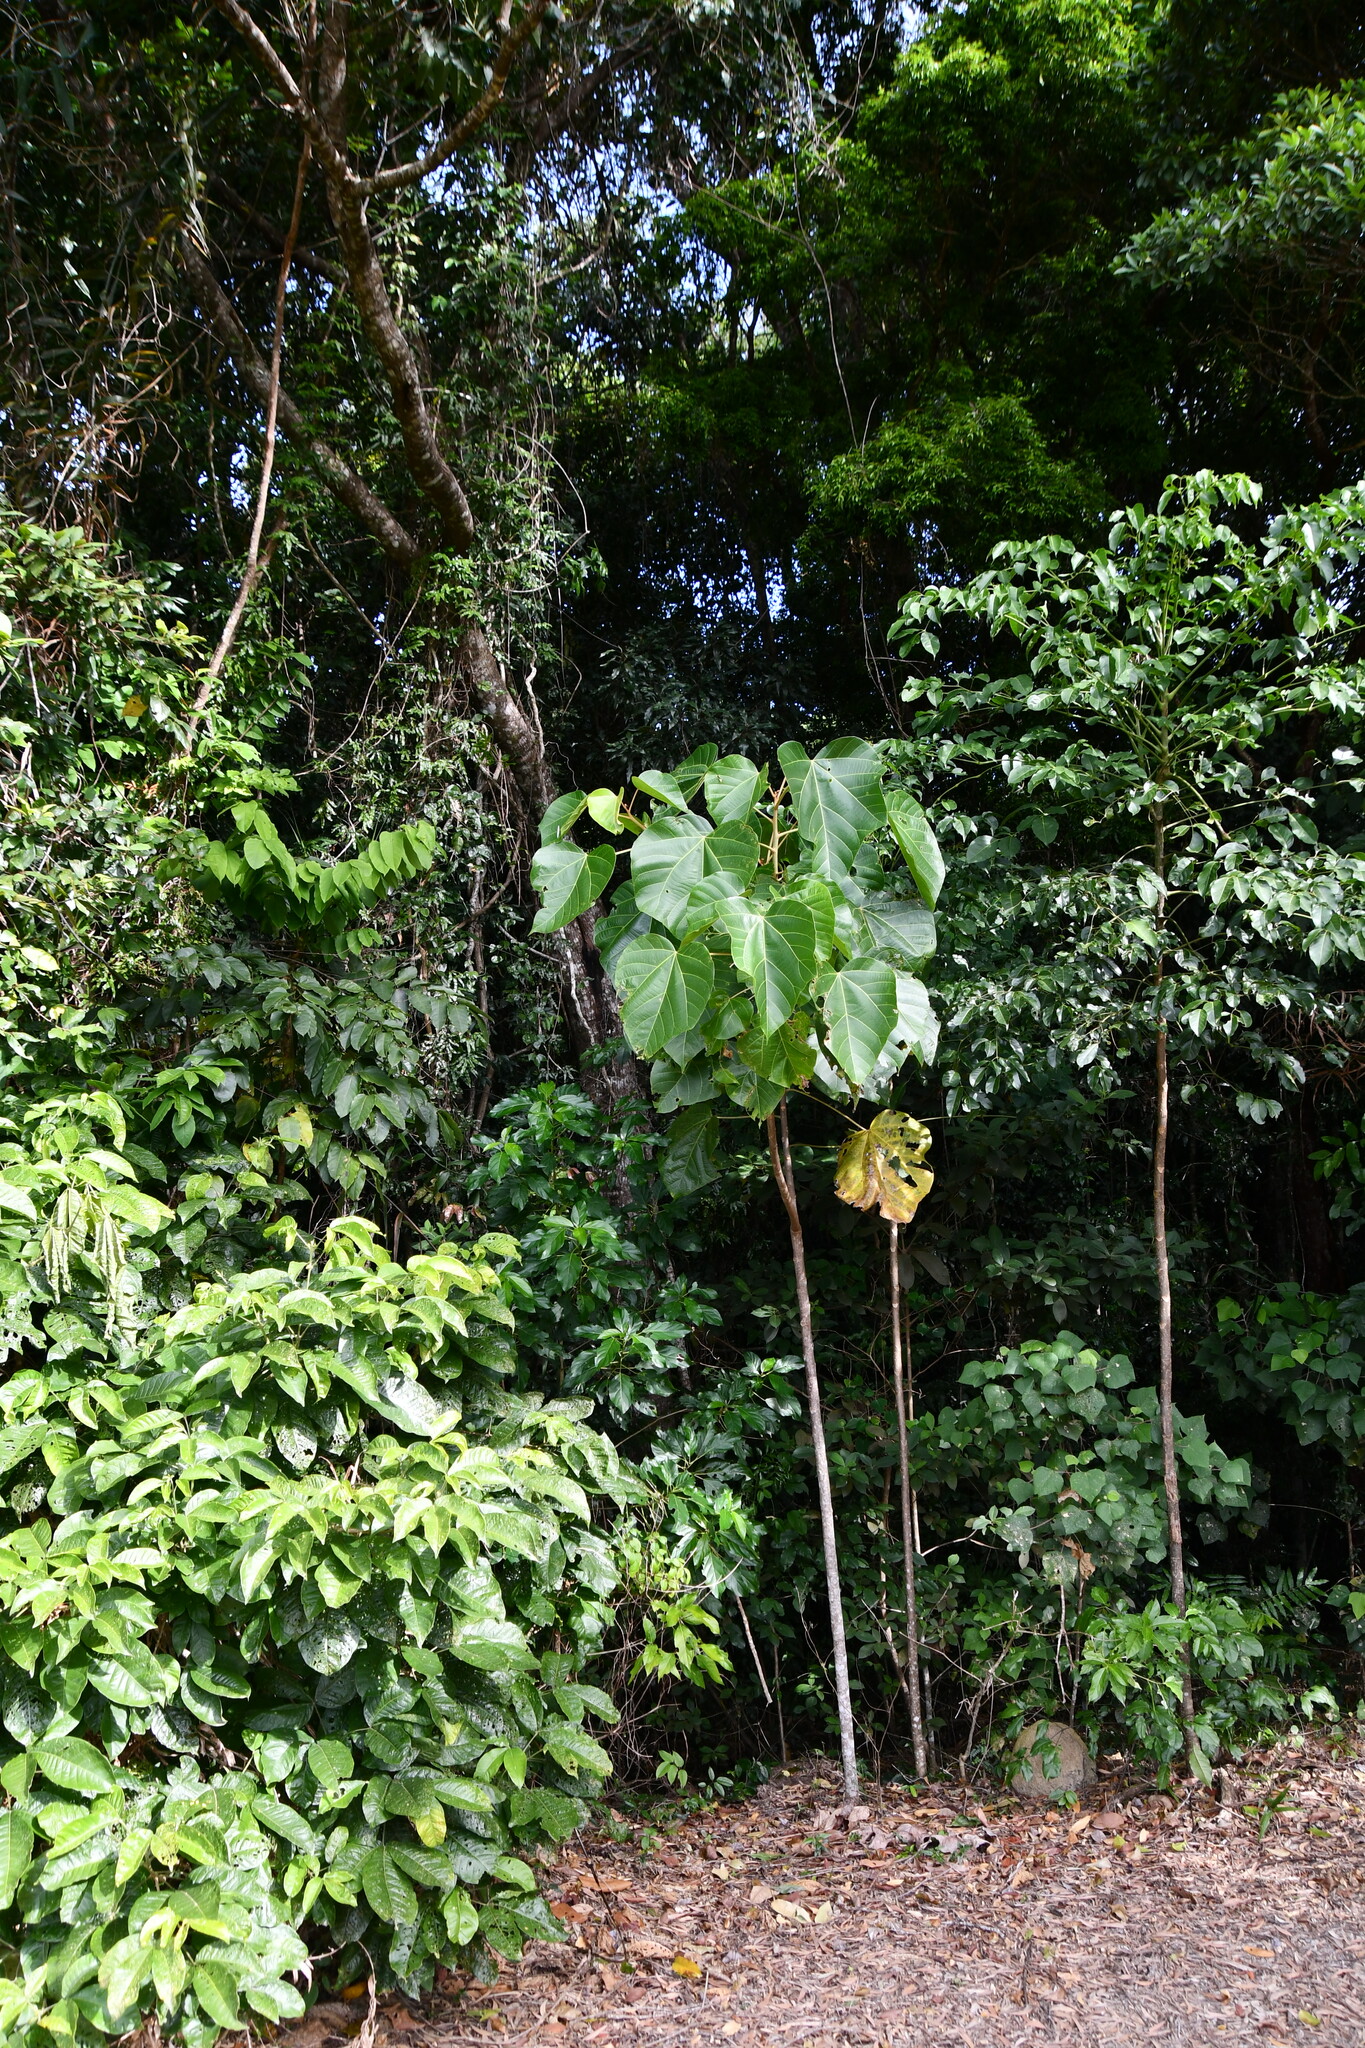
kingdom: Plantae
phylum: Tracheophyta
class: Magnoliopsida
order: Malpighiales
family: Euphorbiaceae
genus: Aleurites
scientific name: Aleurites rockinghamensis
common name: Candelnut
